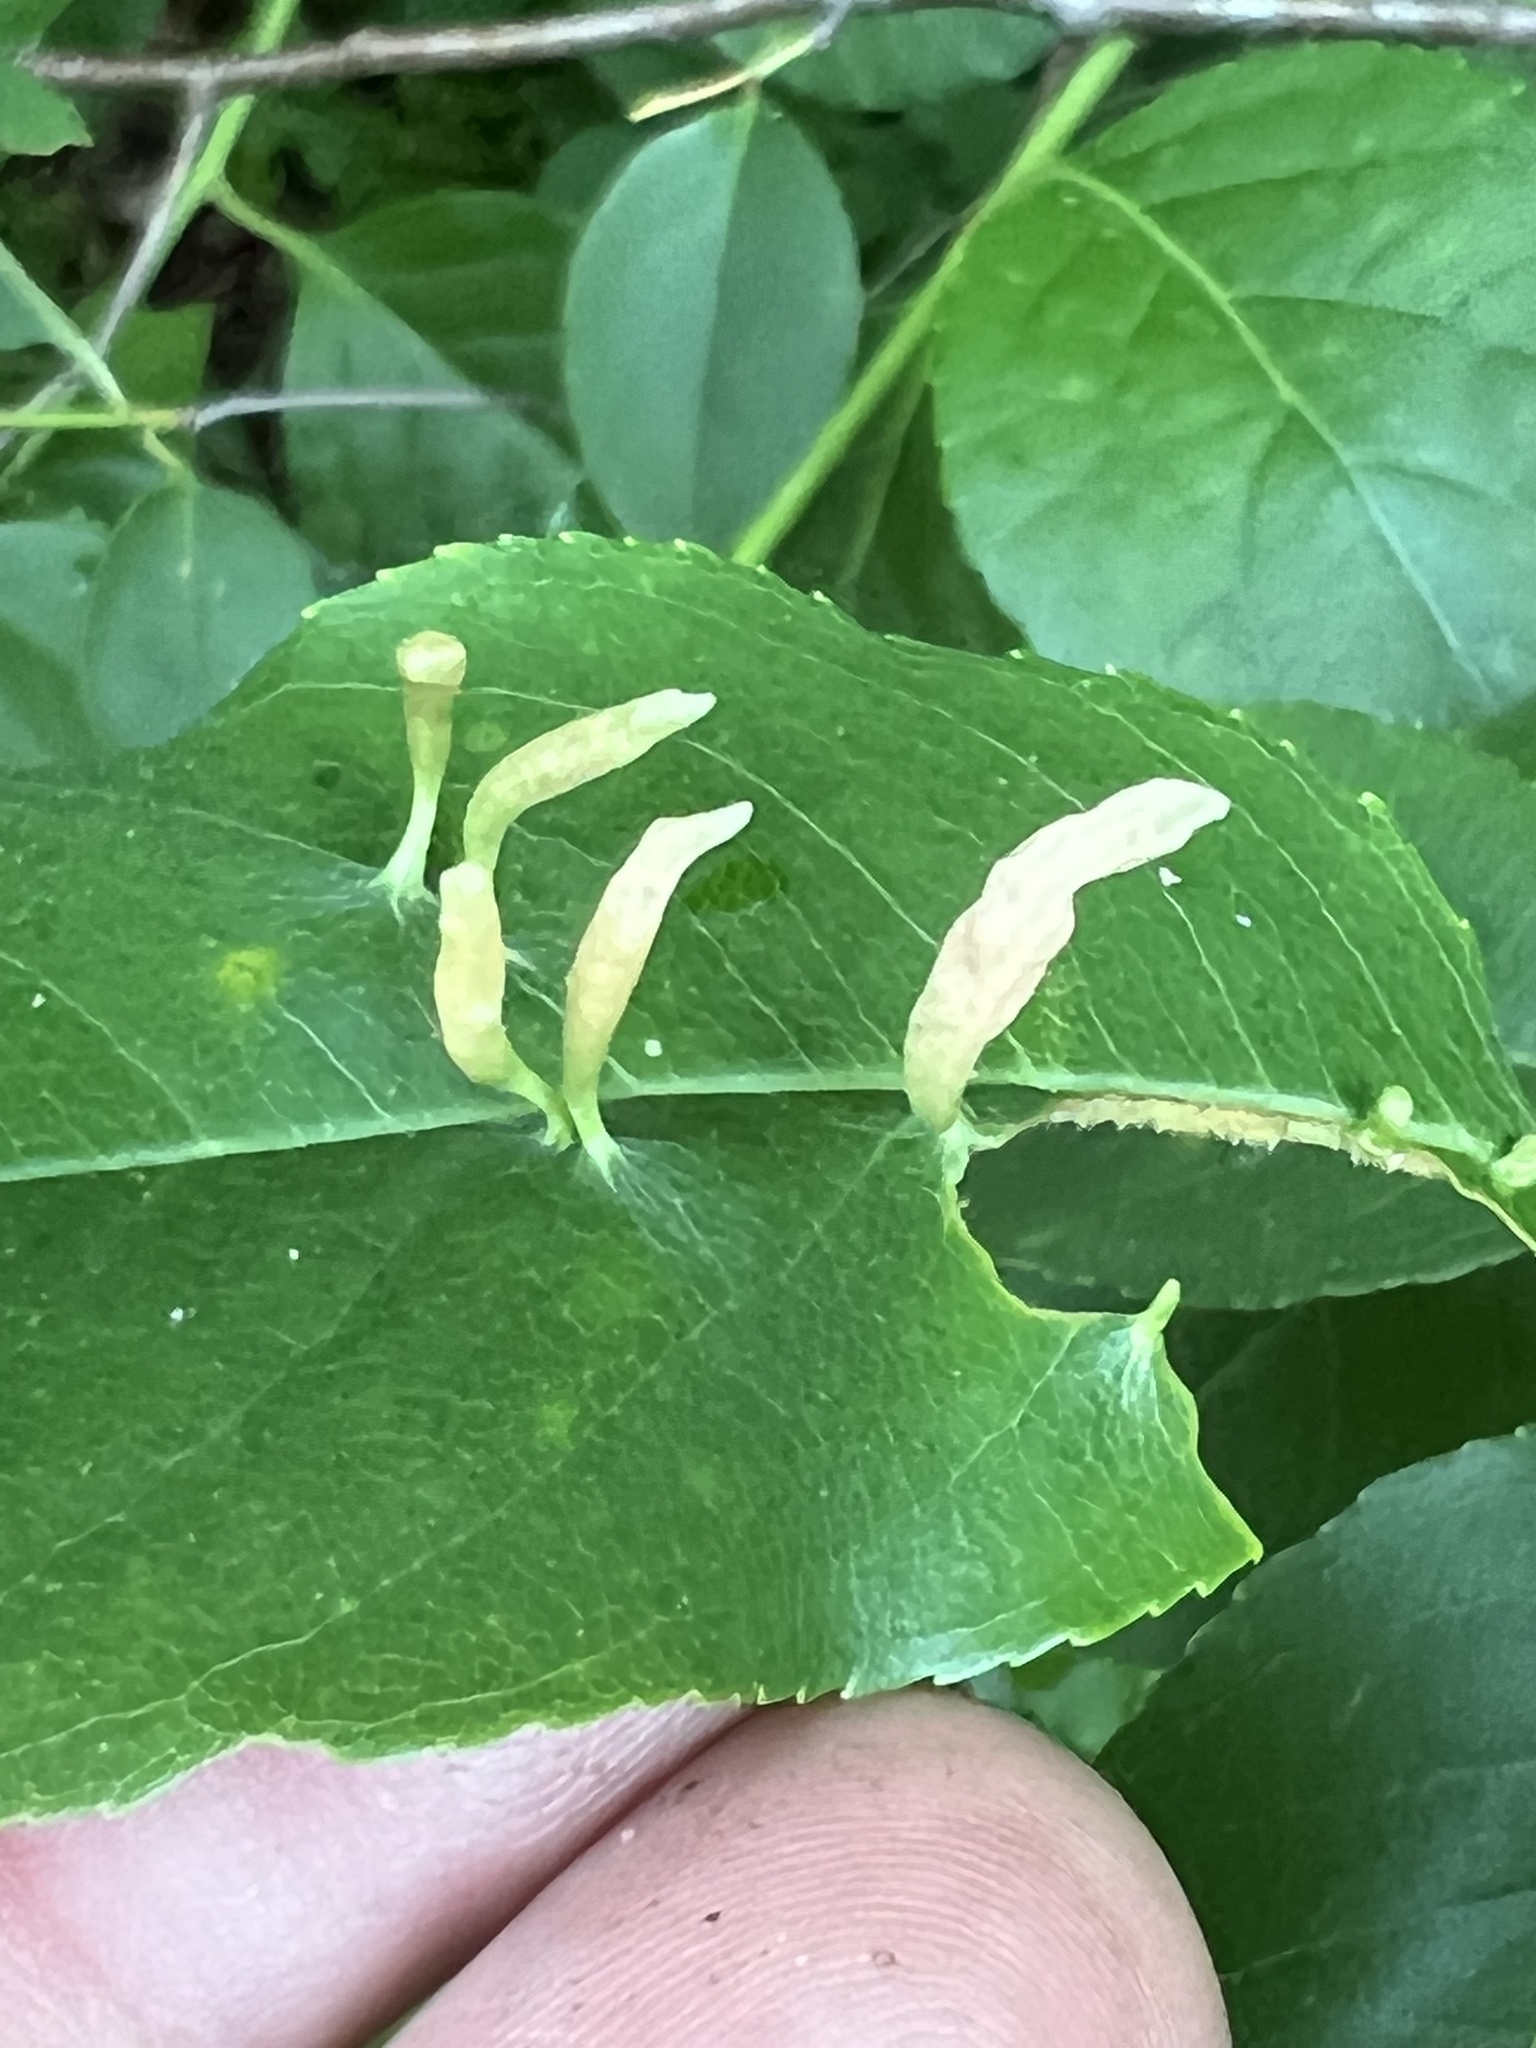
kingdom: Animalia
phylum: Arthropoda
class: Arachnida
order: Trombidiformes
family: Eriophyidae
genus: Eriophyes
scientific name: Eriophyes
